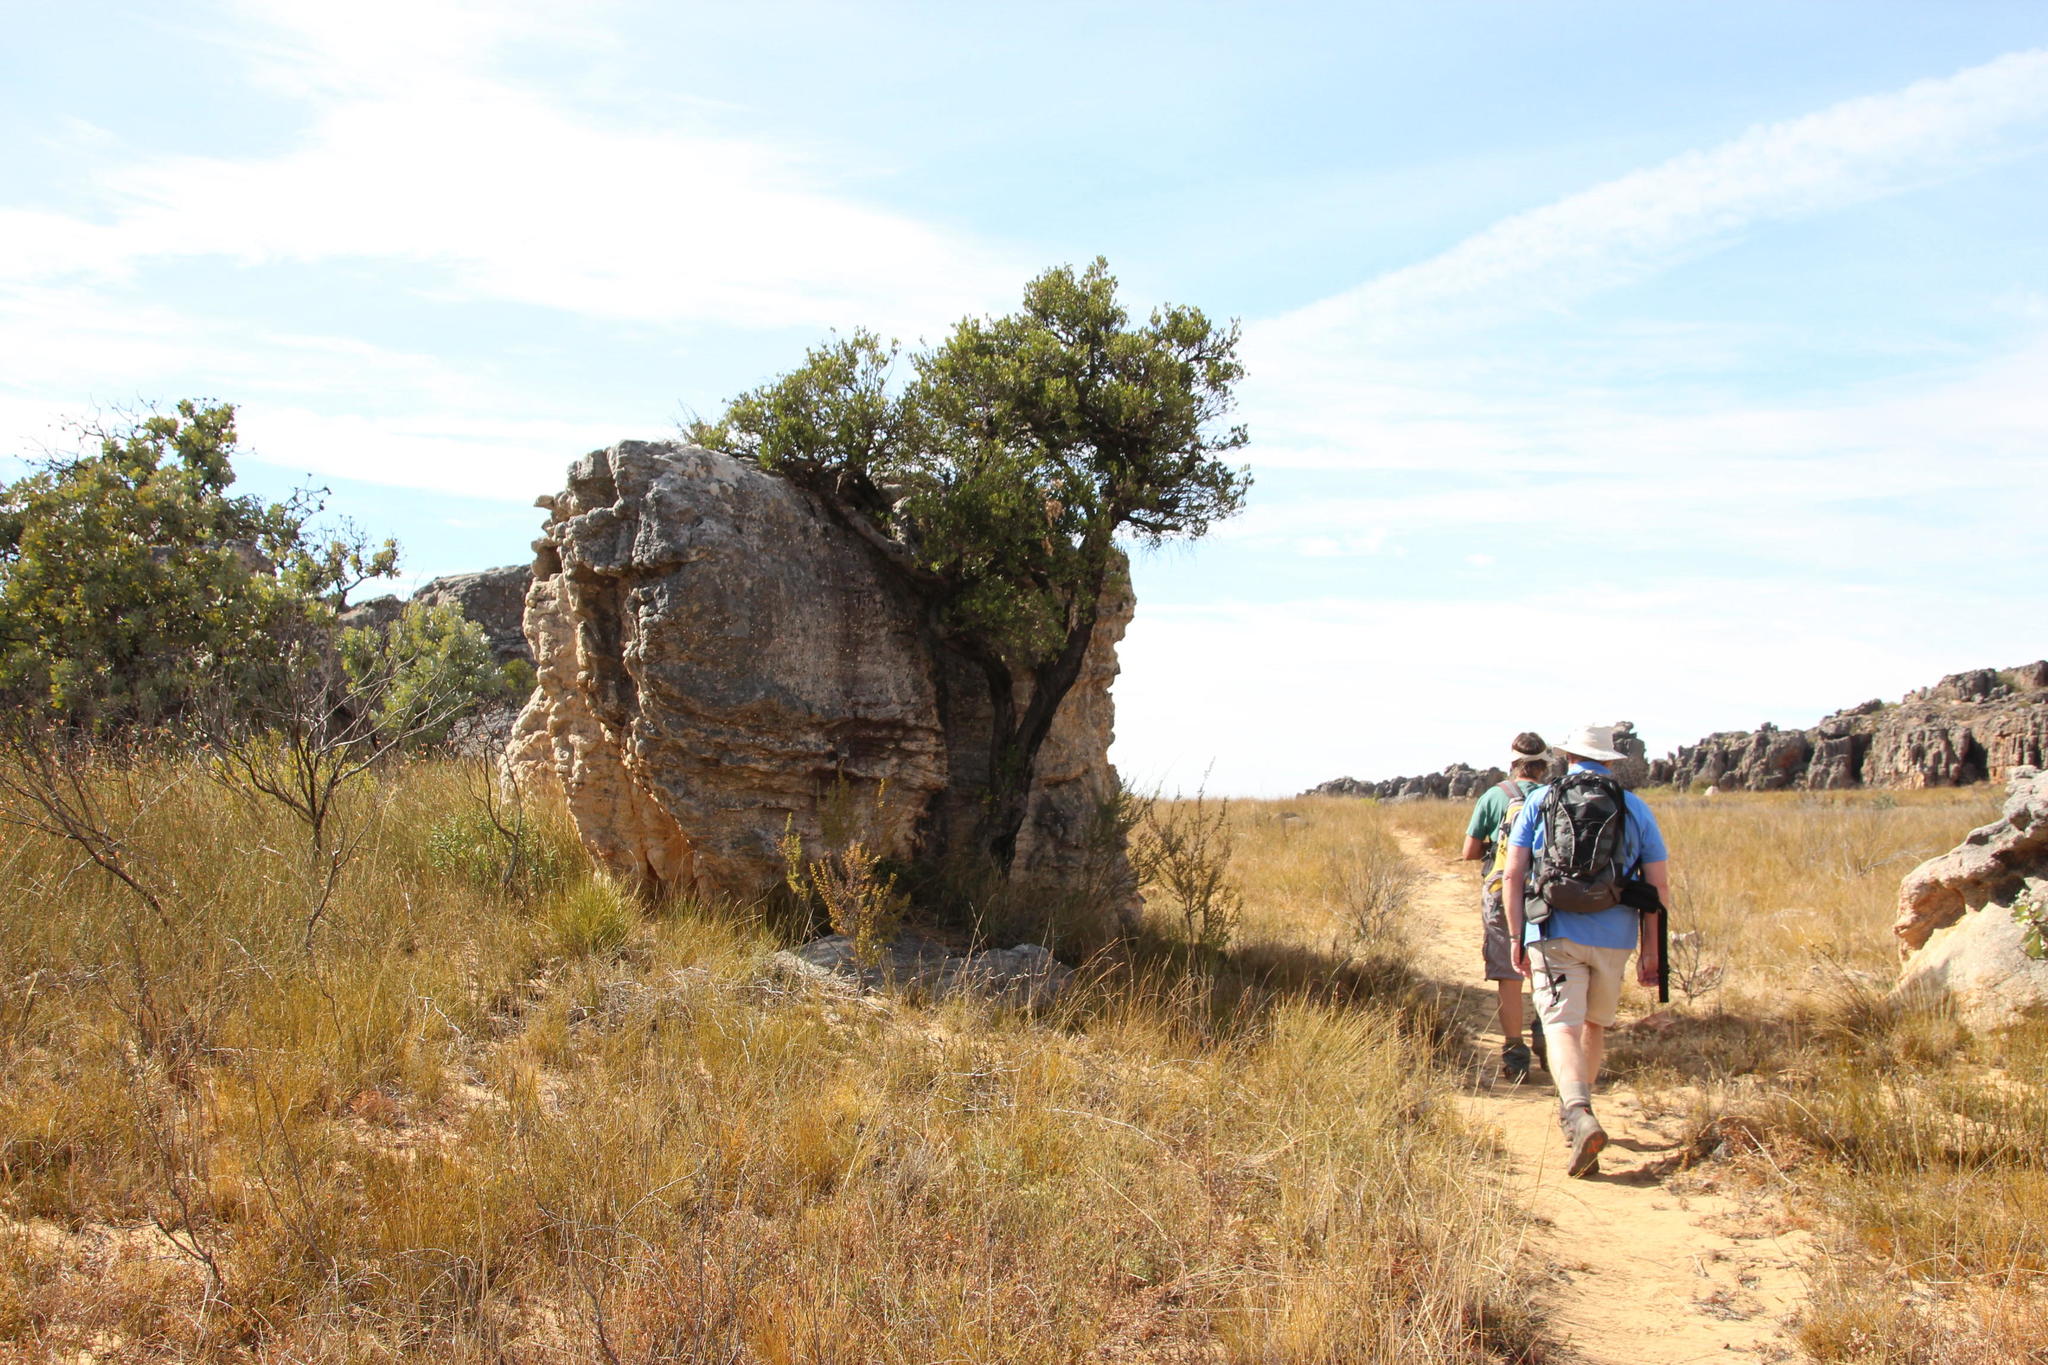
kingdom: Plantae
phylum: Tracheophyta
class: Magnoliopsida
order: Celastrales
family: Celastraceae
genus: Gymnosporia
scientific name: Gymnosporia laurina
